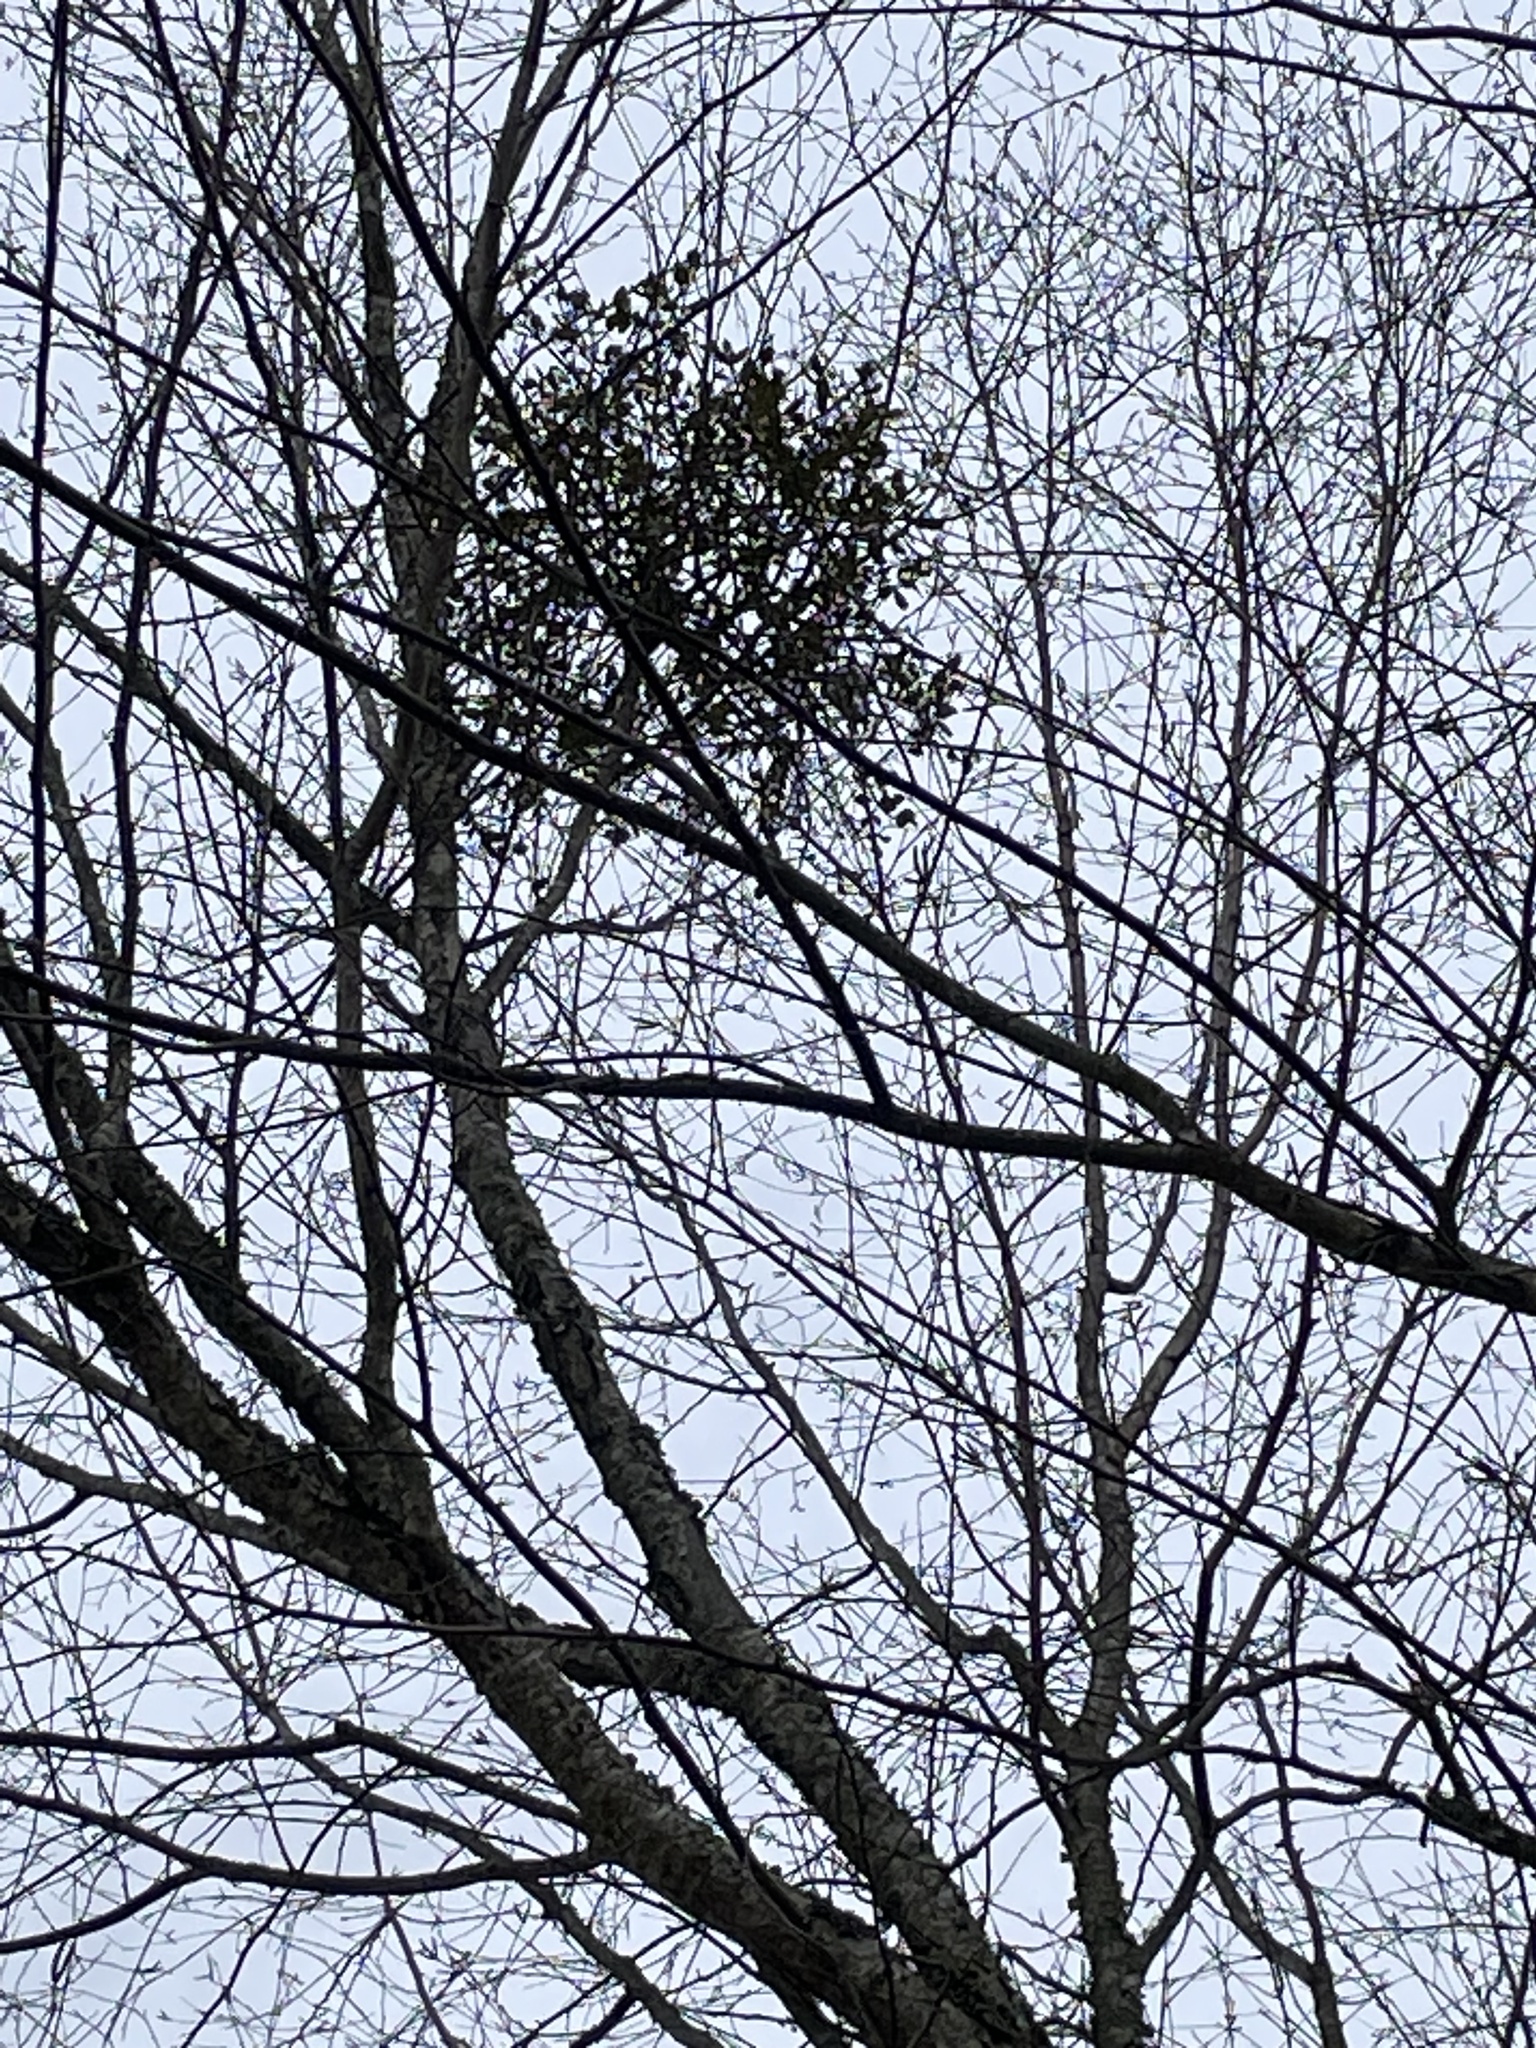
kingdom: Plantae
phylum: Tracheophyta
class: Magnoliopsida
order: Fagales
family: Betulaceae
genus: Betula
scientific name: Betula nigra
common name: Black birch
